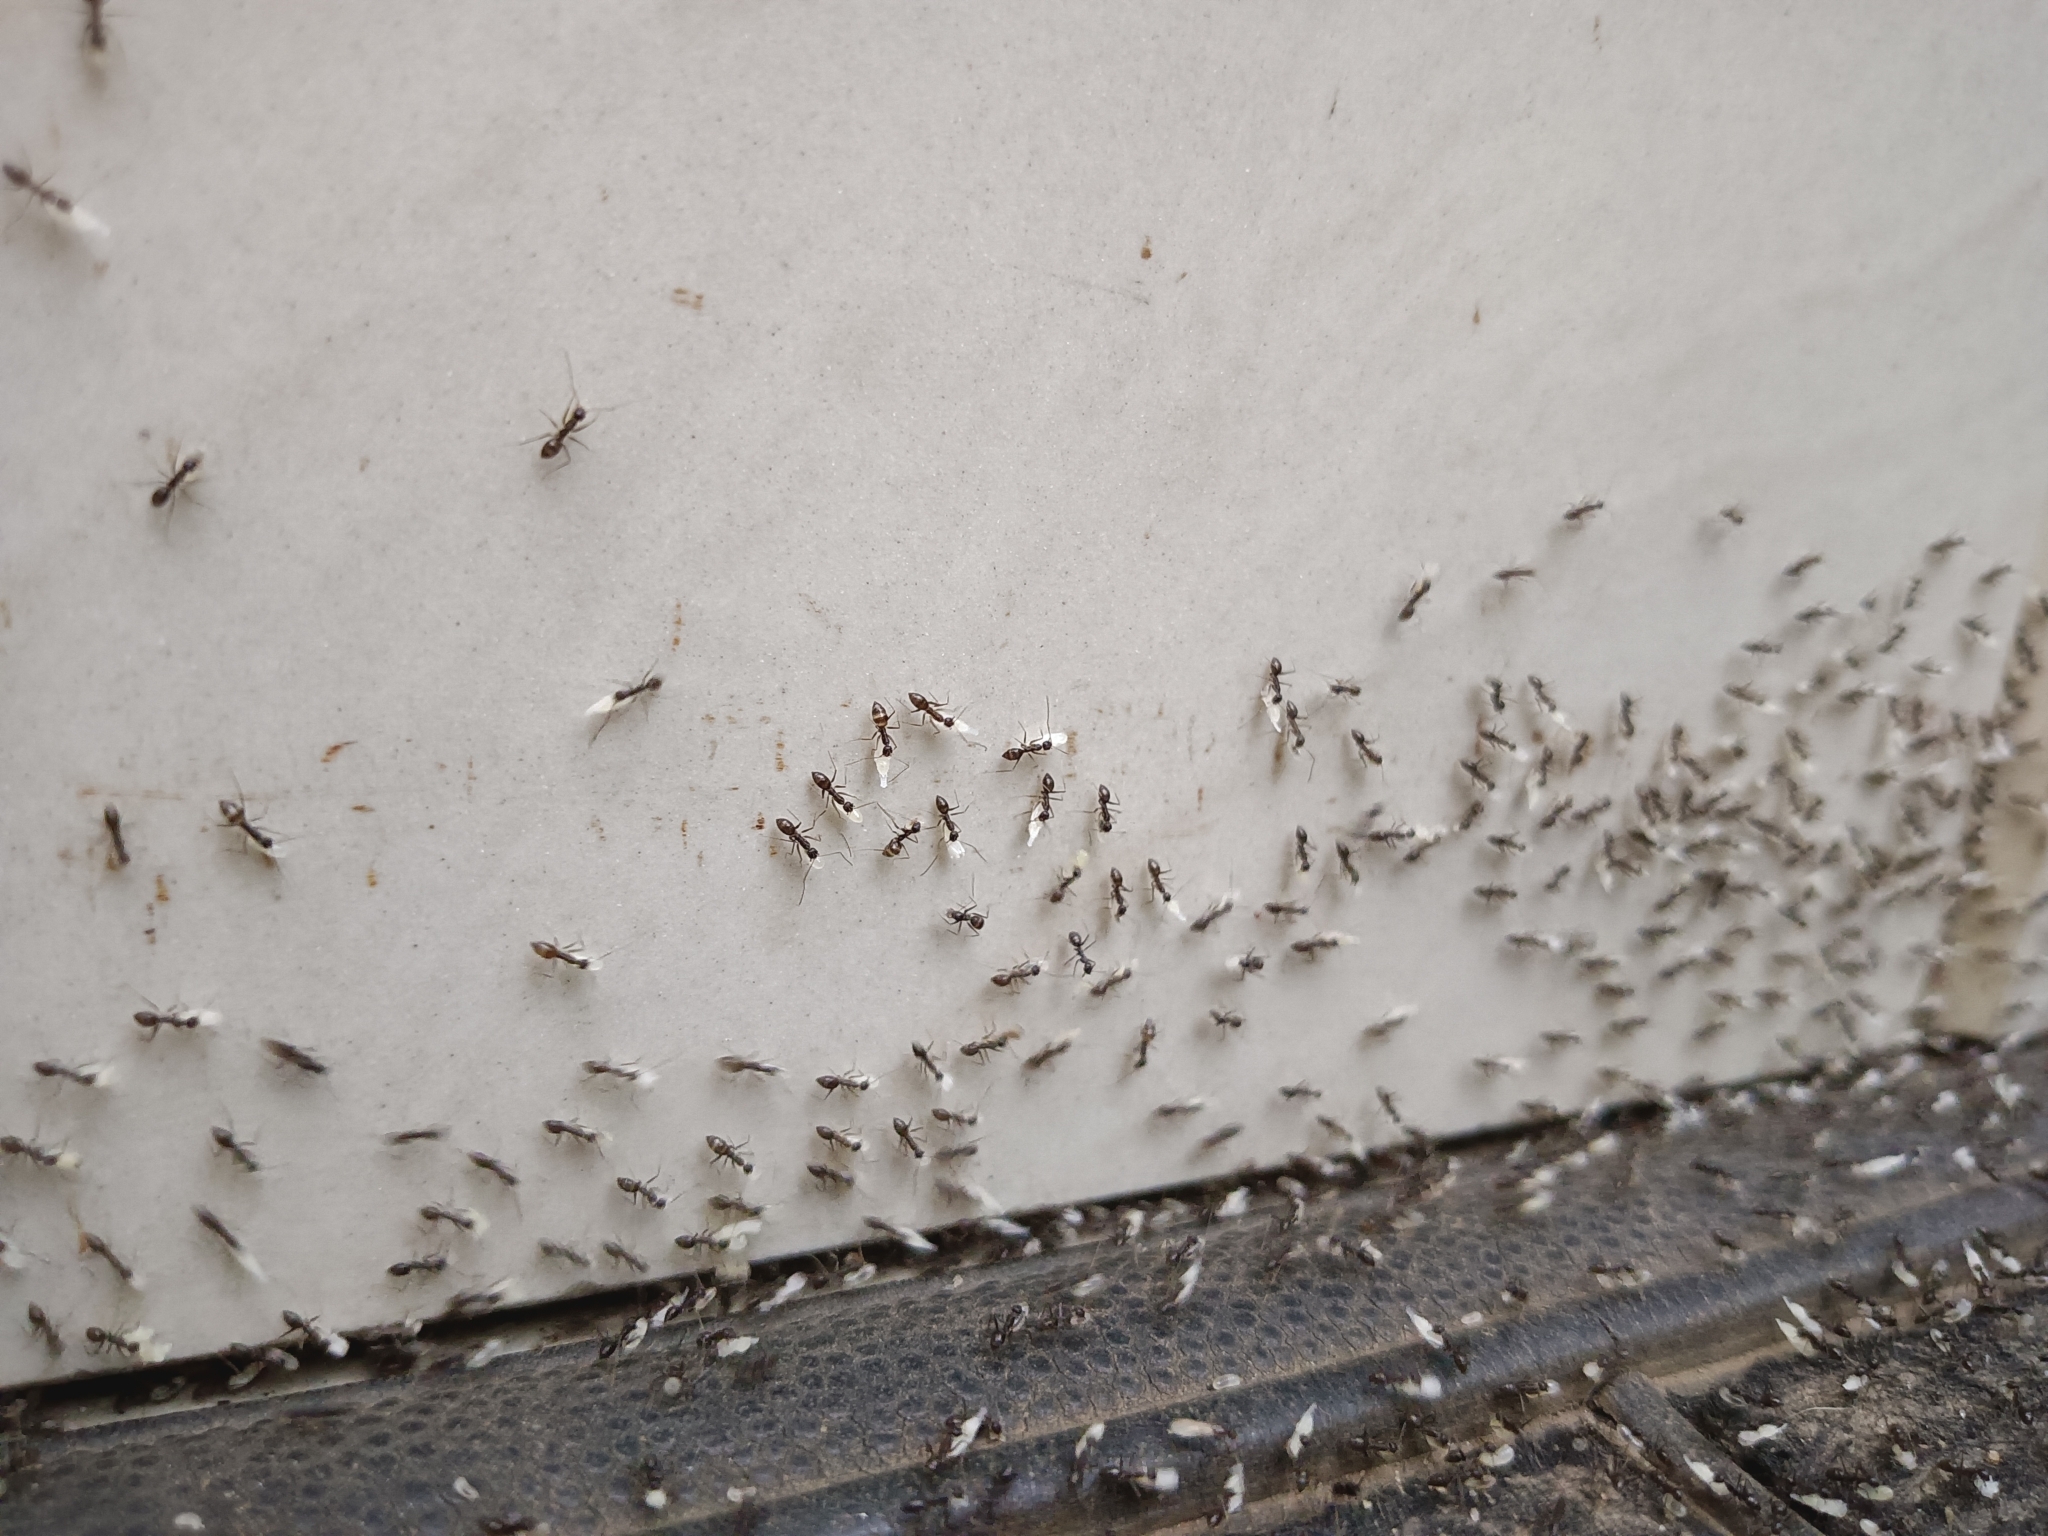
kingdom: Animalia
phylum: Arthropoda
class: Insecta
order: Hymenoptera
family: Formicidae
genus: Paratrechina
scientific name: Paratrechina longicornis
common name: Longhorned crazy ant
